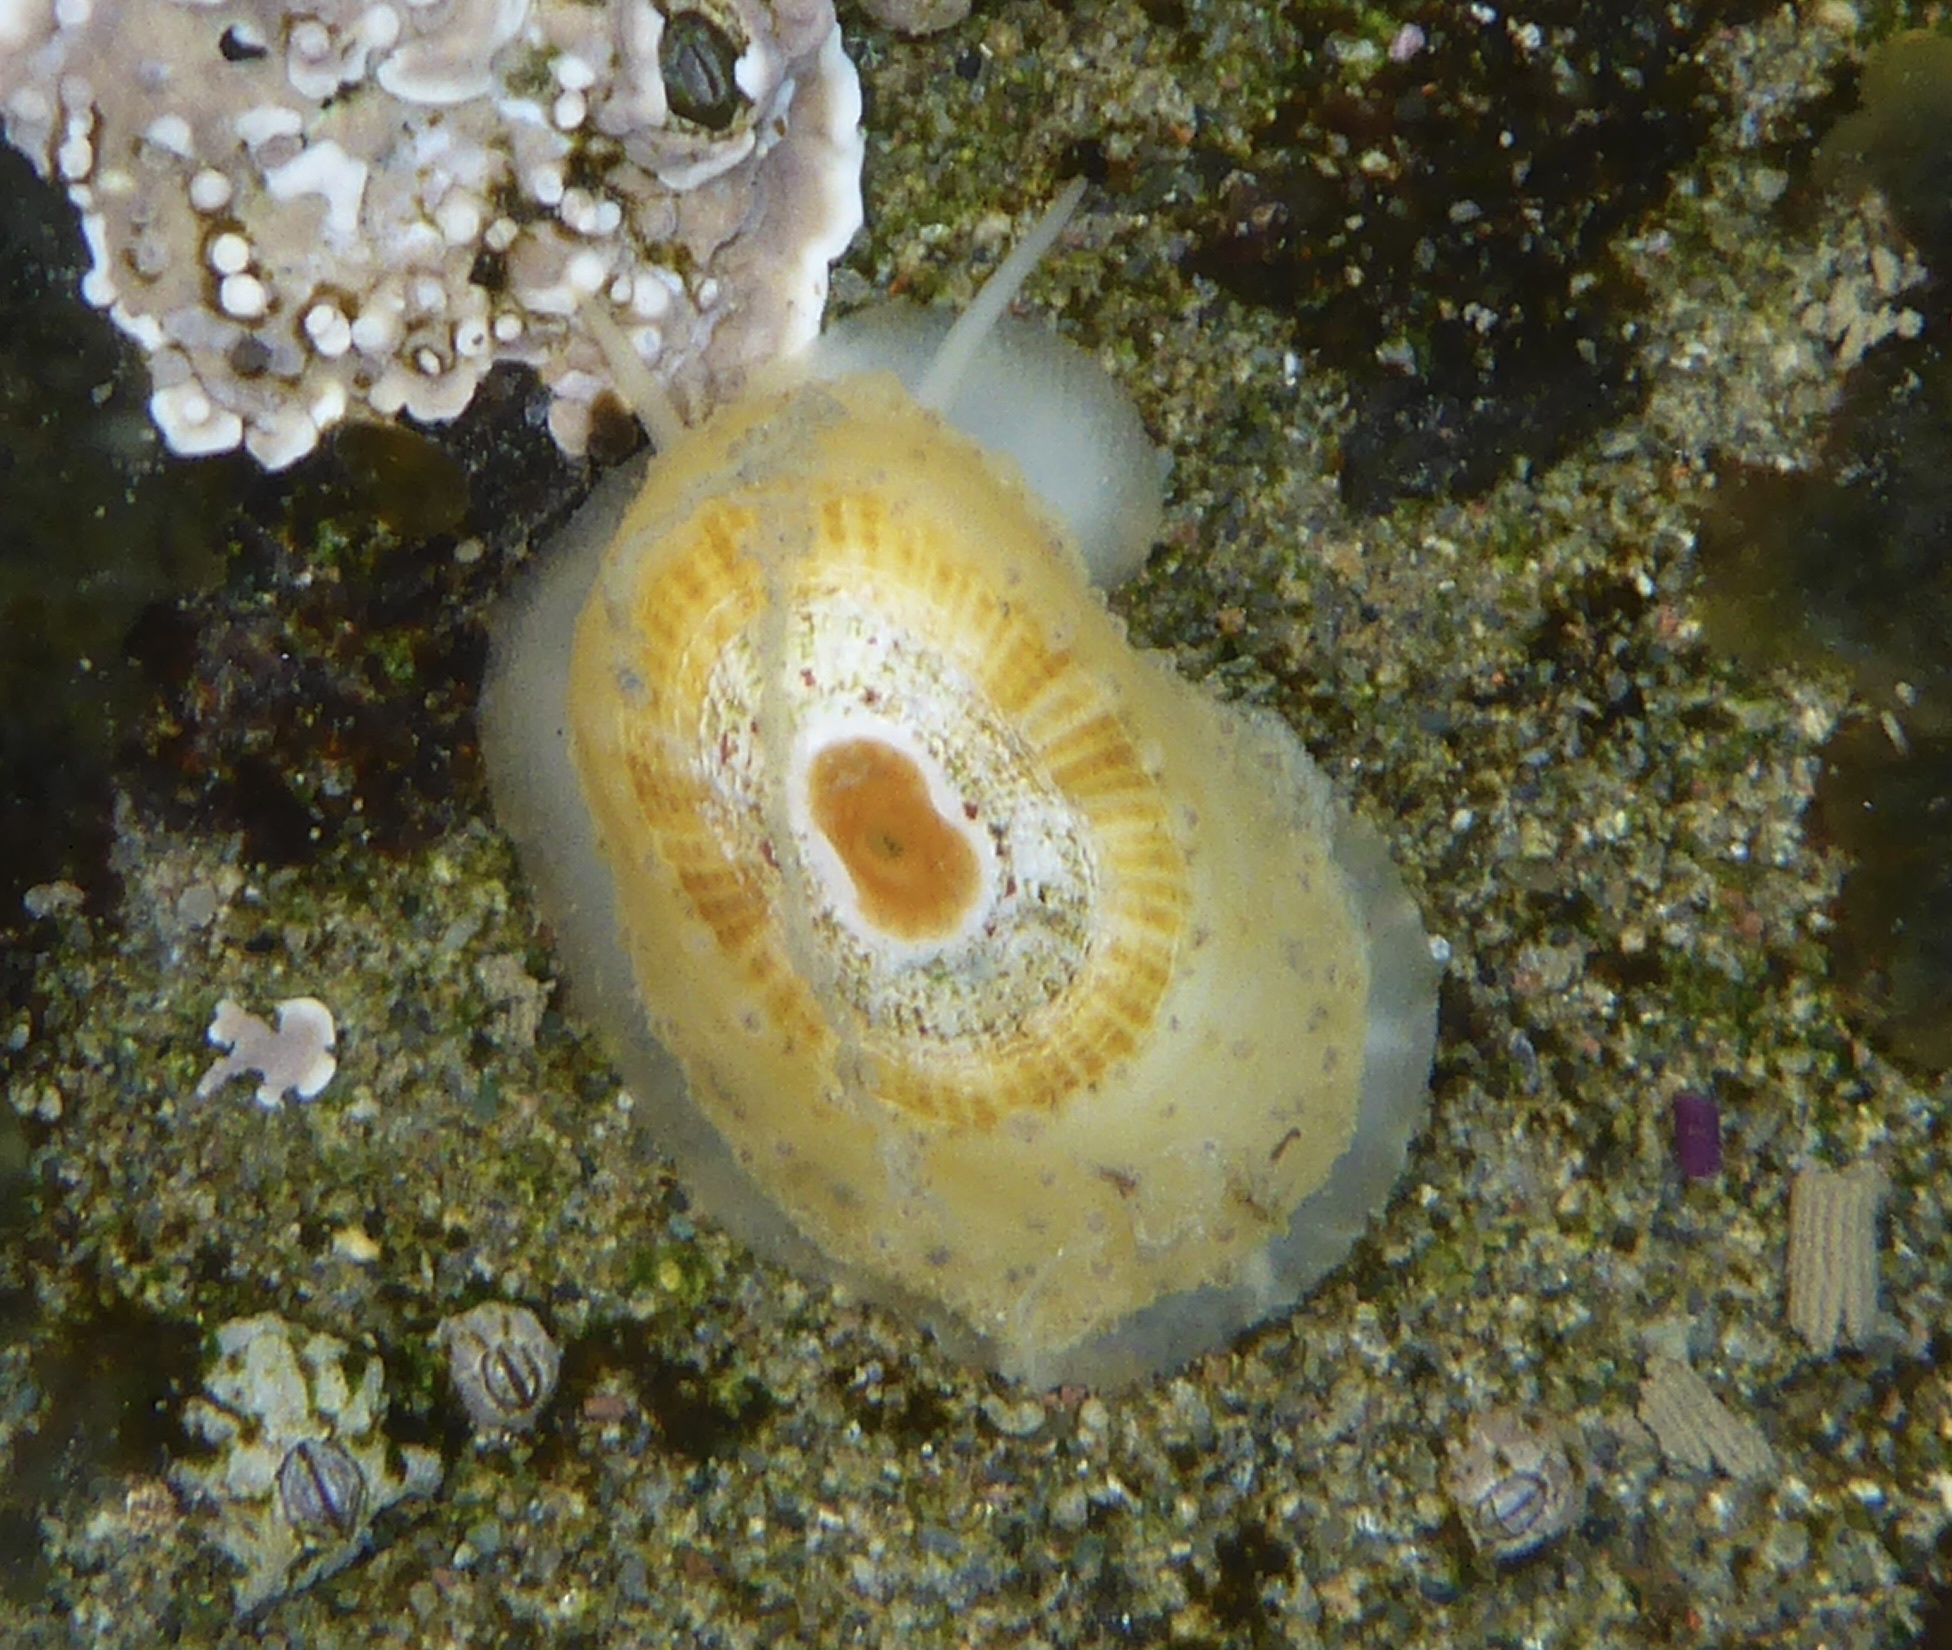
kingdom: Animalia
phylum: Mollusca
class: Gastropoda
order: Lepetellida
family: Fissurellidae
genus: Fissurellidea
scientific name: Fissurellidea bimaculata
